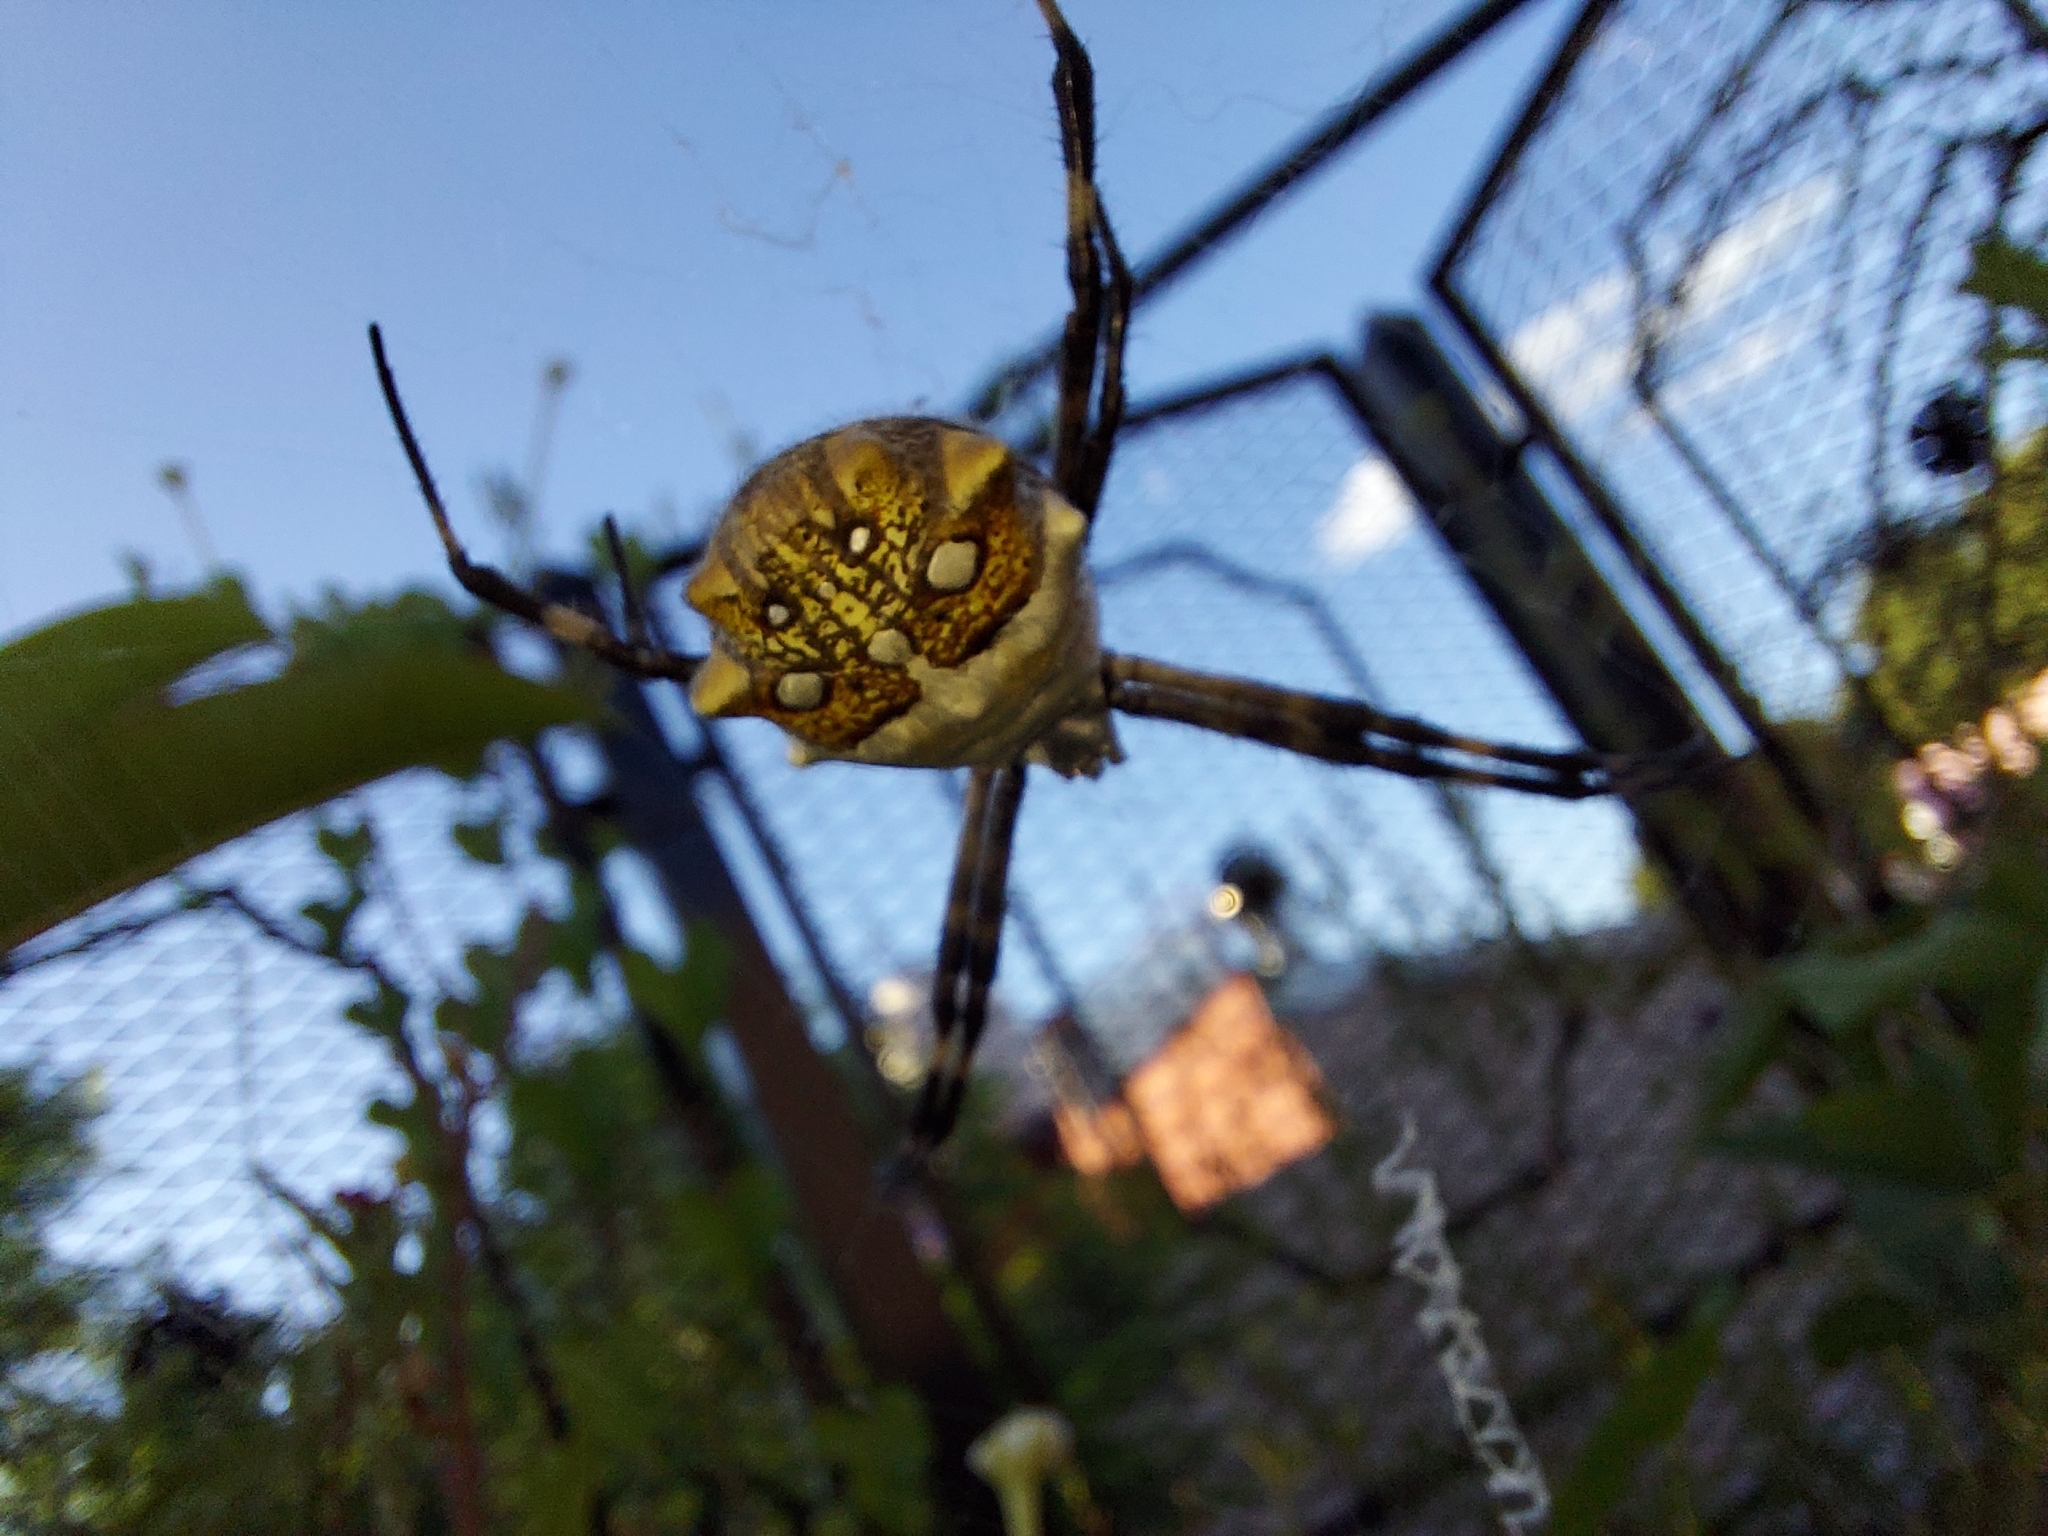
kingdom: Animalia
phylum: Arthropoda
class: Arachnida
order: Araneae
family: Araneidae
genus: Argiope
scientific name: Argiope argentata
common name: Orb weavers
